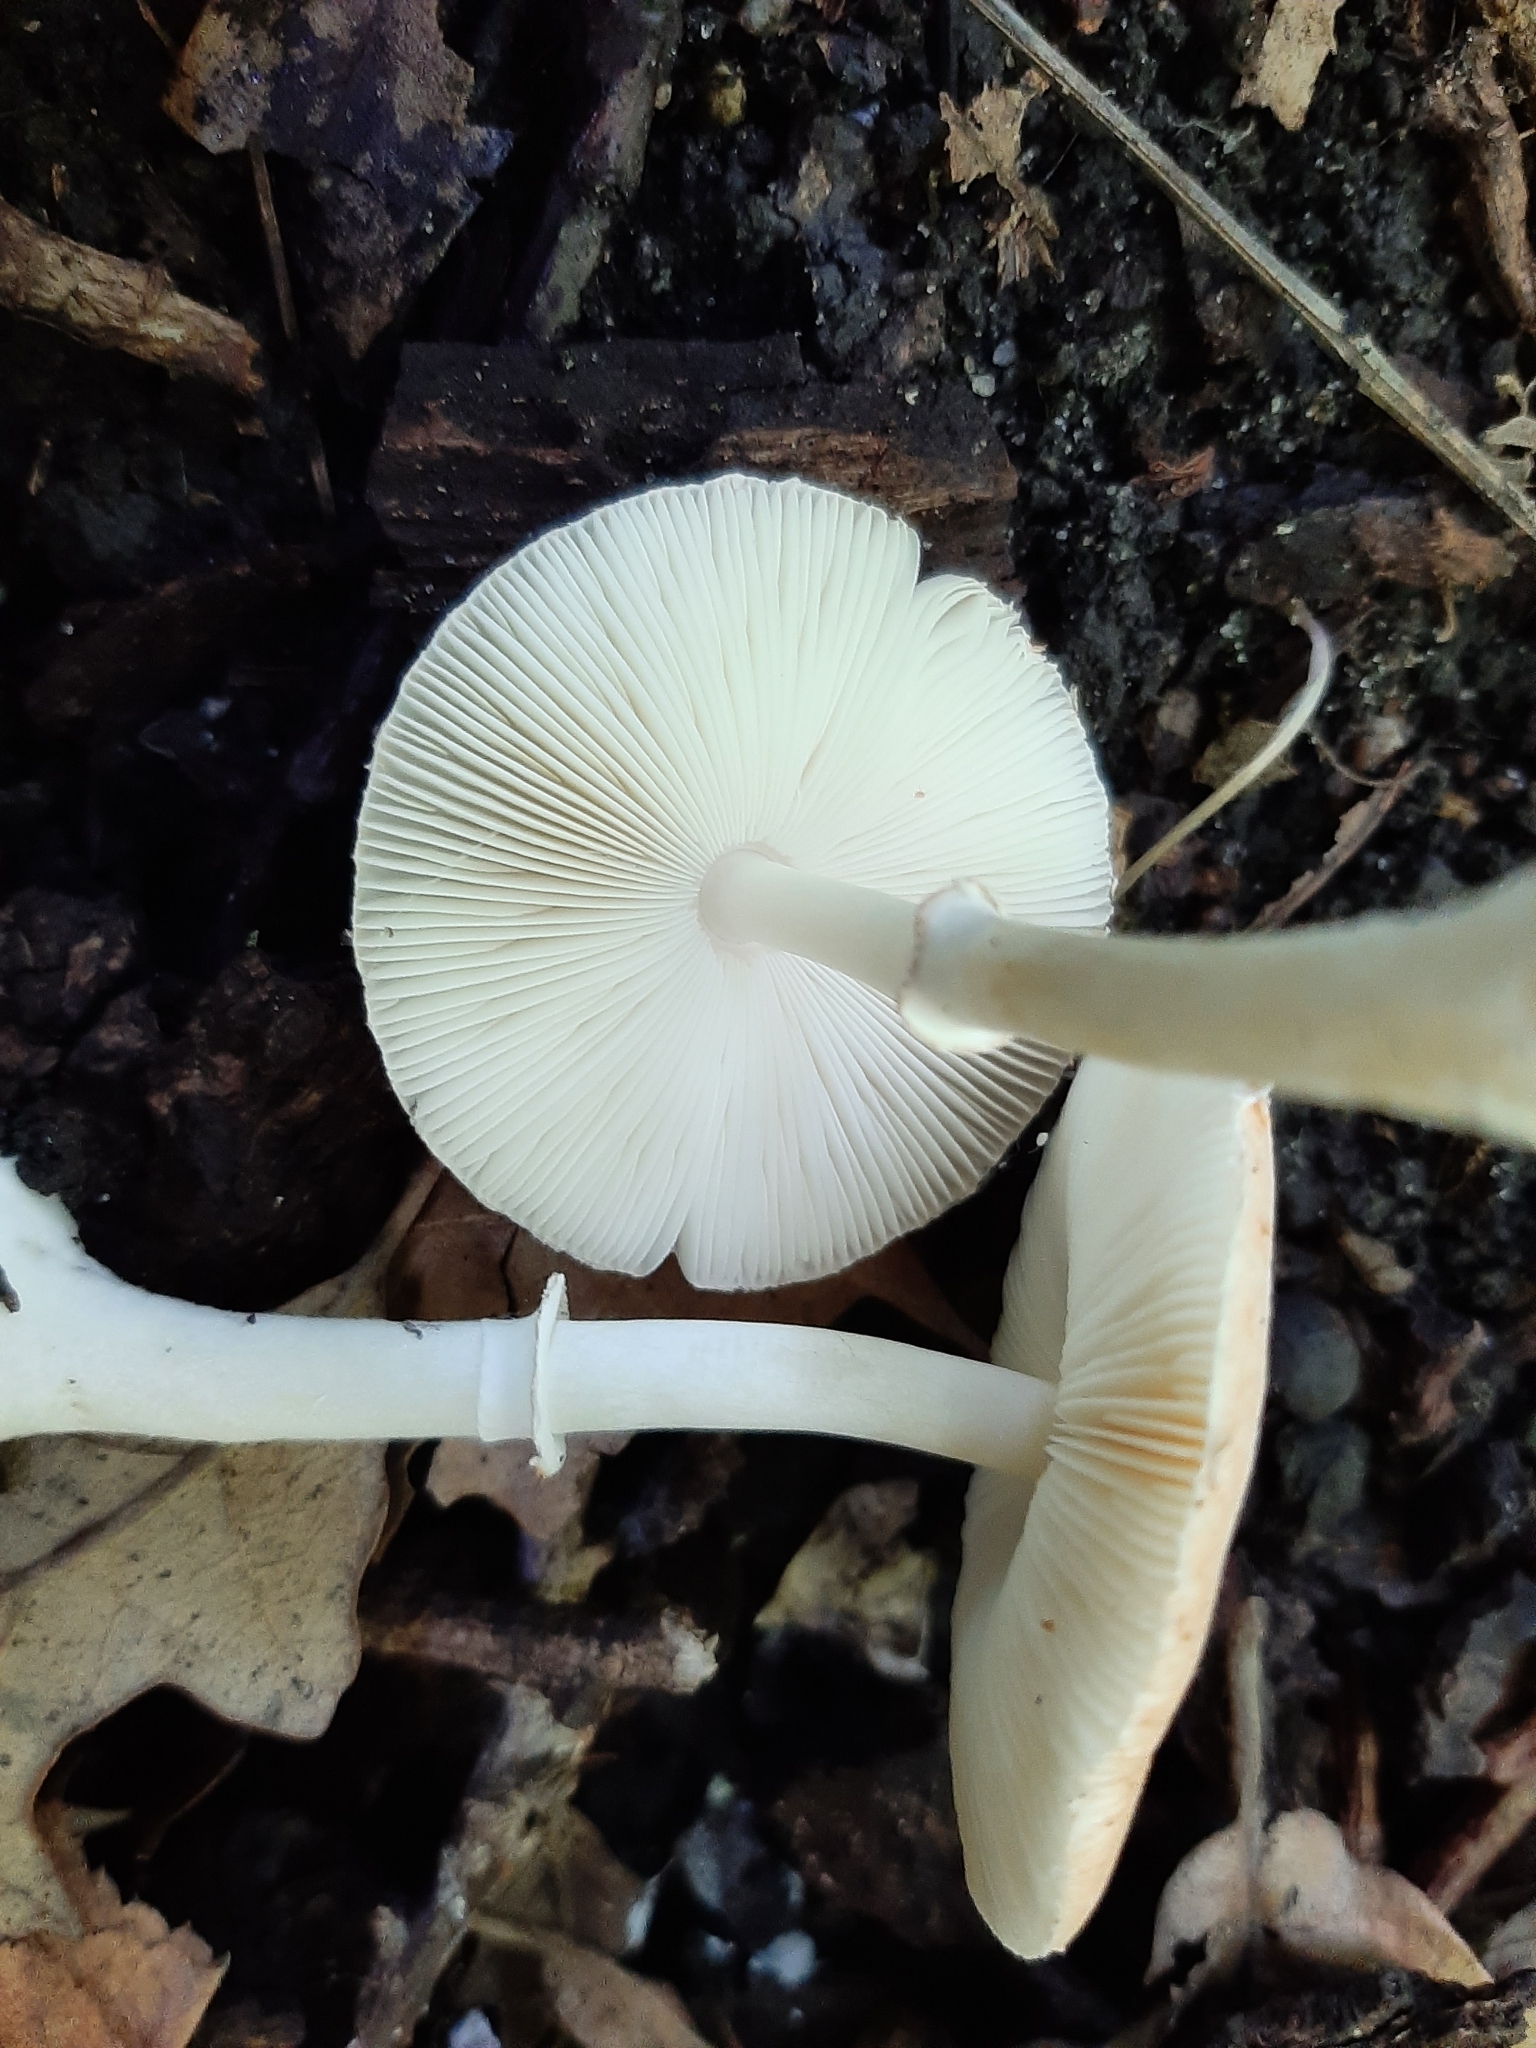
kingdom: Fungi
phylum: Basidiomycota
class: Agaricomycetes
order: Agaricales
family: Agaricaceae
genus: Leucoagaricus
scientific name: Leucoagaricus rubrotinctus
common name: Ruby dapperling
